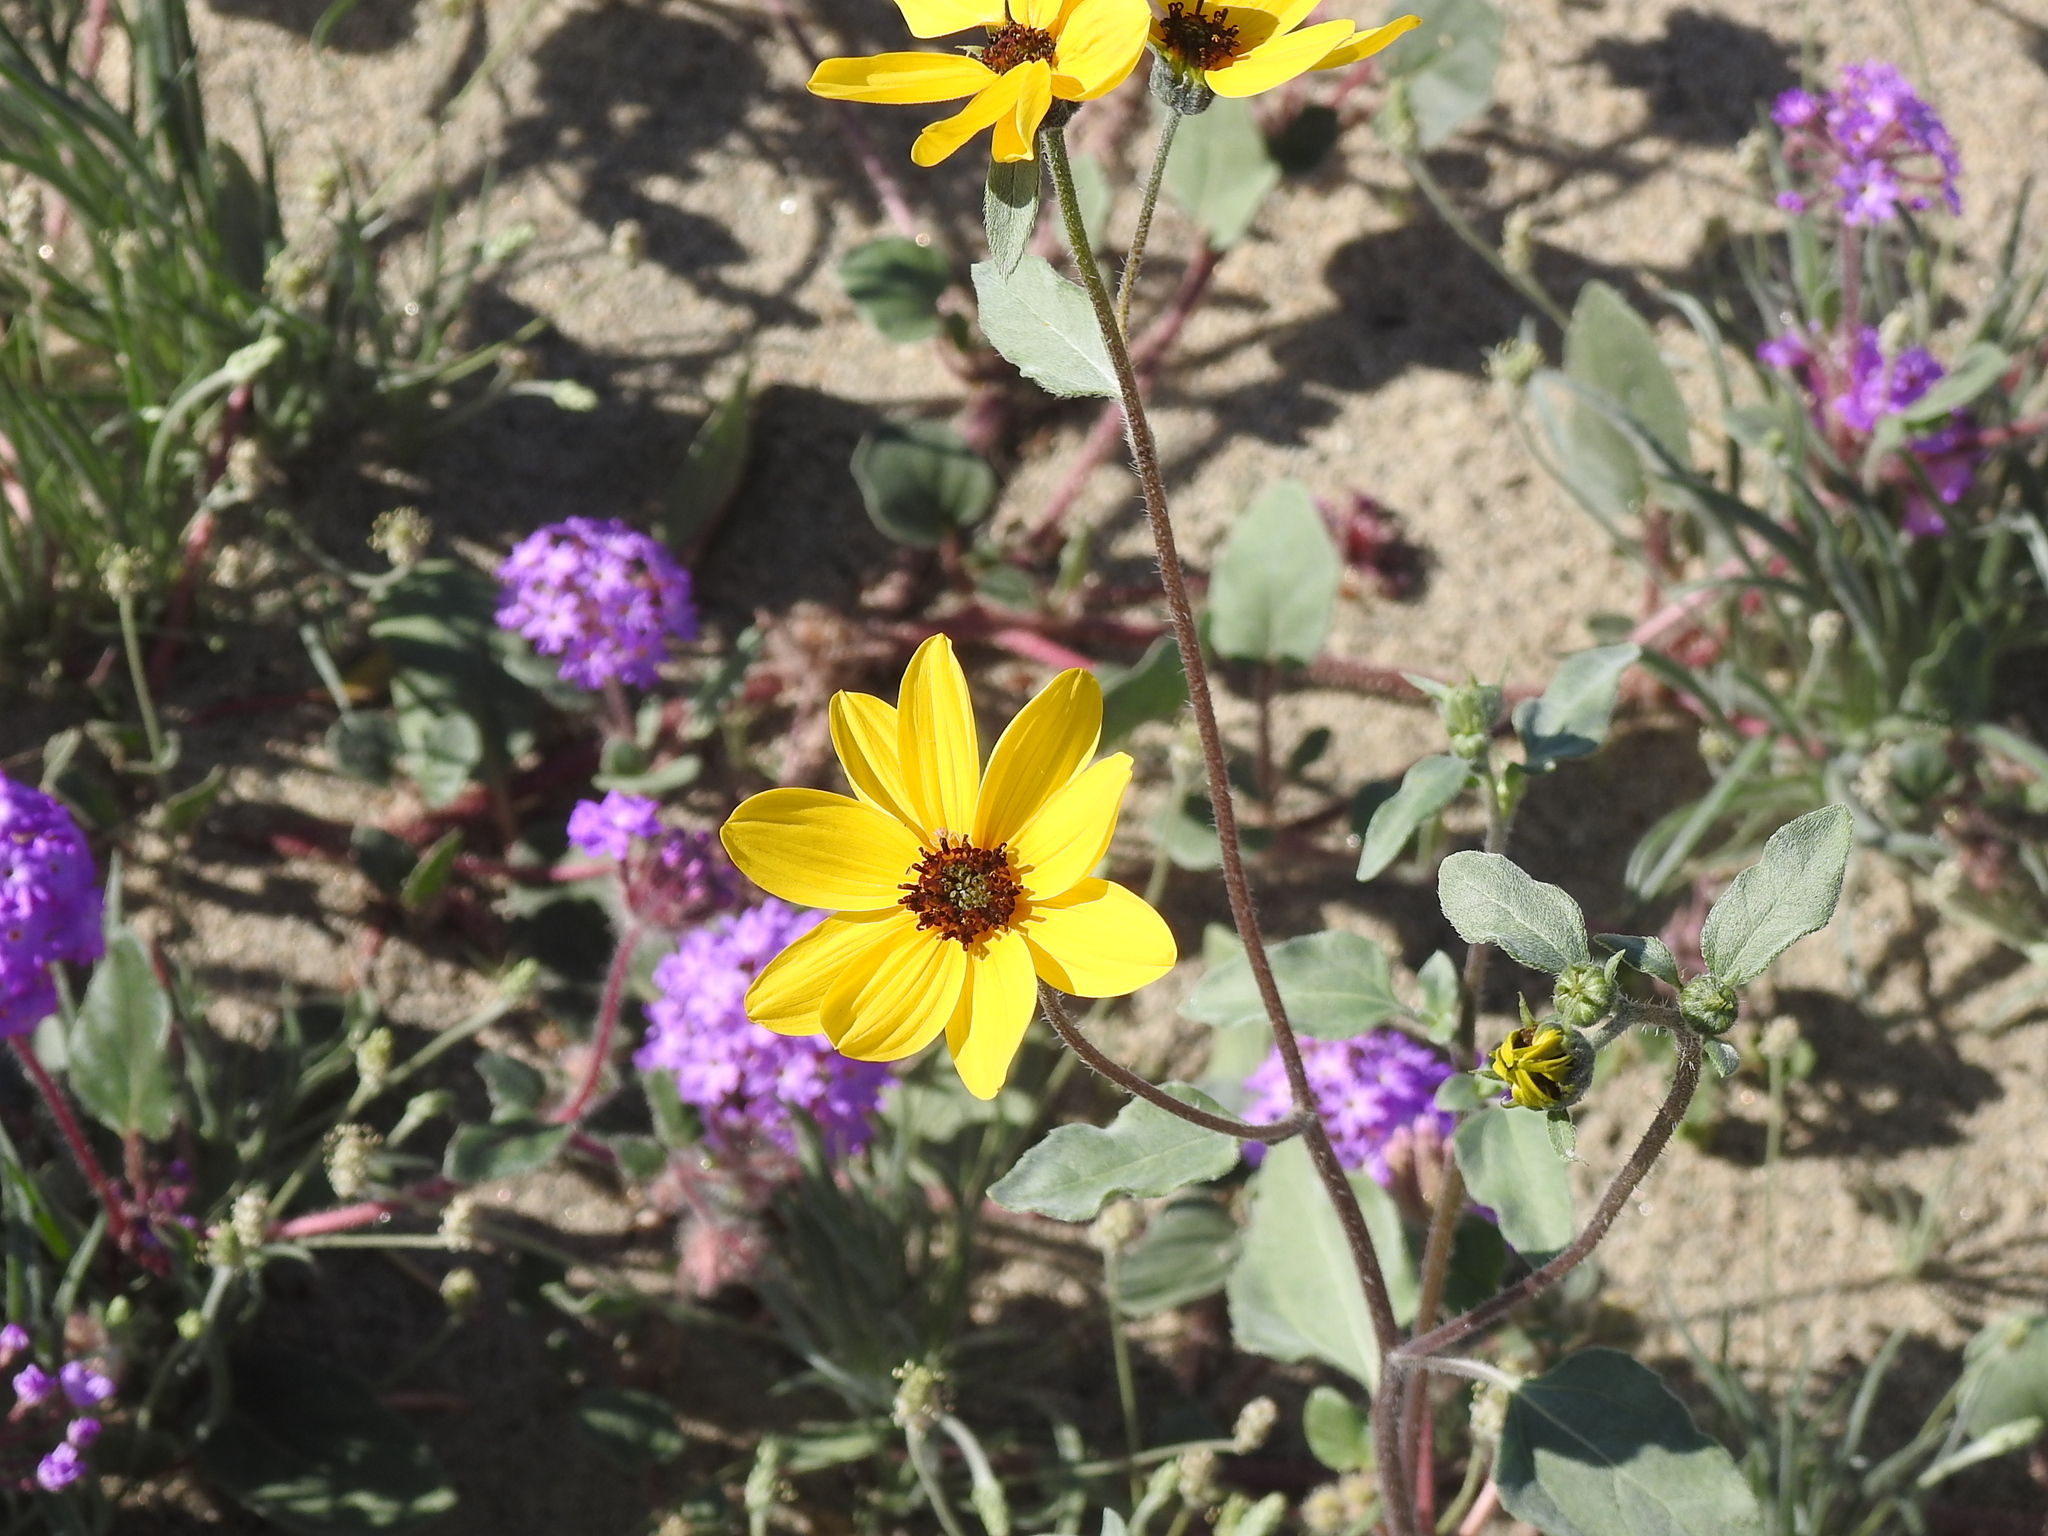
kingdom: Plantae
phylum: Tracheophyta
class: Magnoliopsida
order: Asterales
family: Asteraceae
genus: Helianthus
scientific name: Helianthus petiolaris
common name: Lesser sunflower
